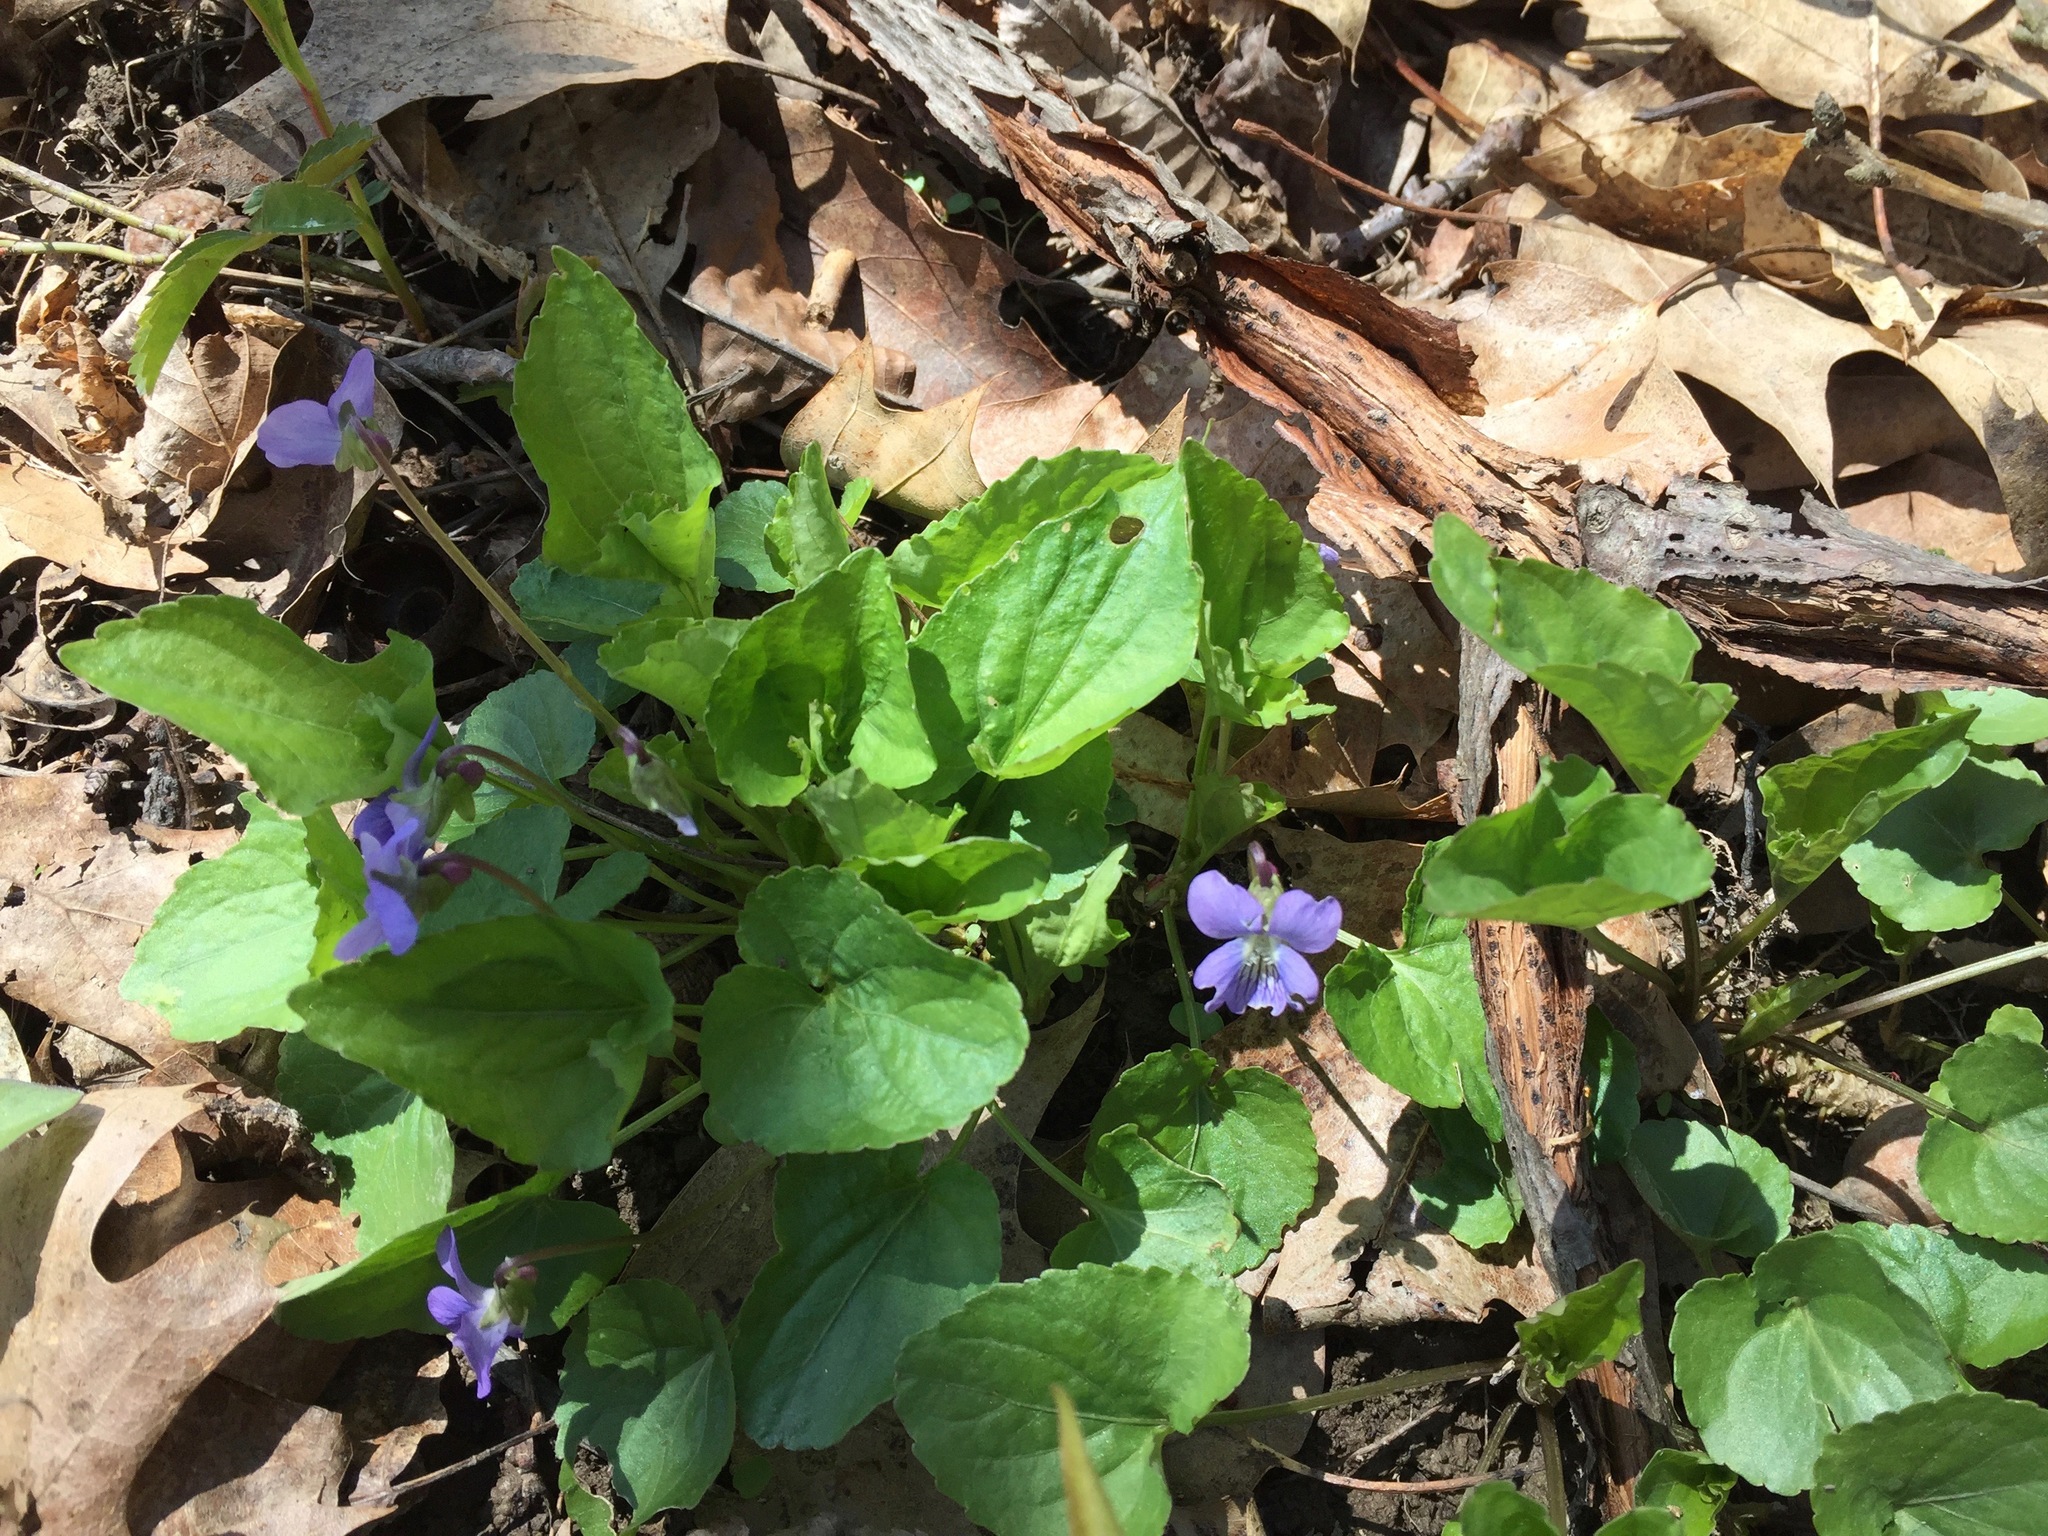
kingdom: Plantae
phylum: Tracheophyta
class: Magnoliopsida
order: Malpighiales
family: Violaceae
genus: Viola
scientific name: Viola sororia
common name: Dooryard violet
